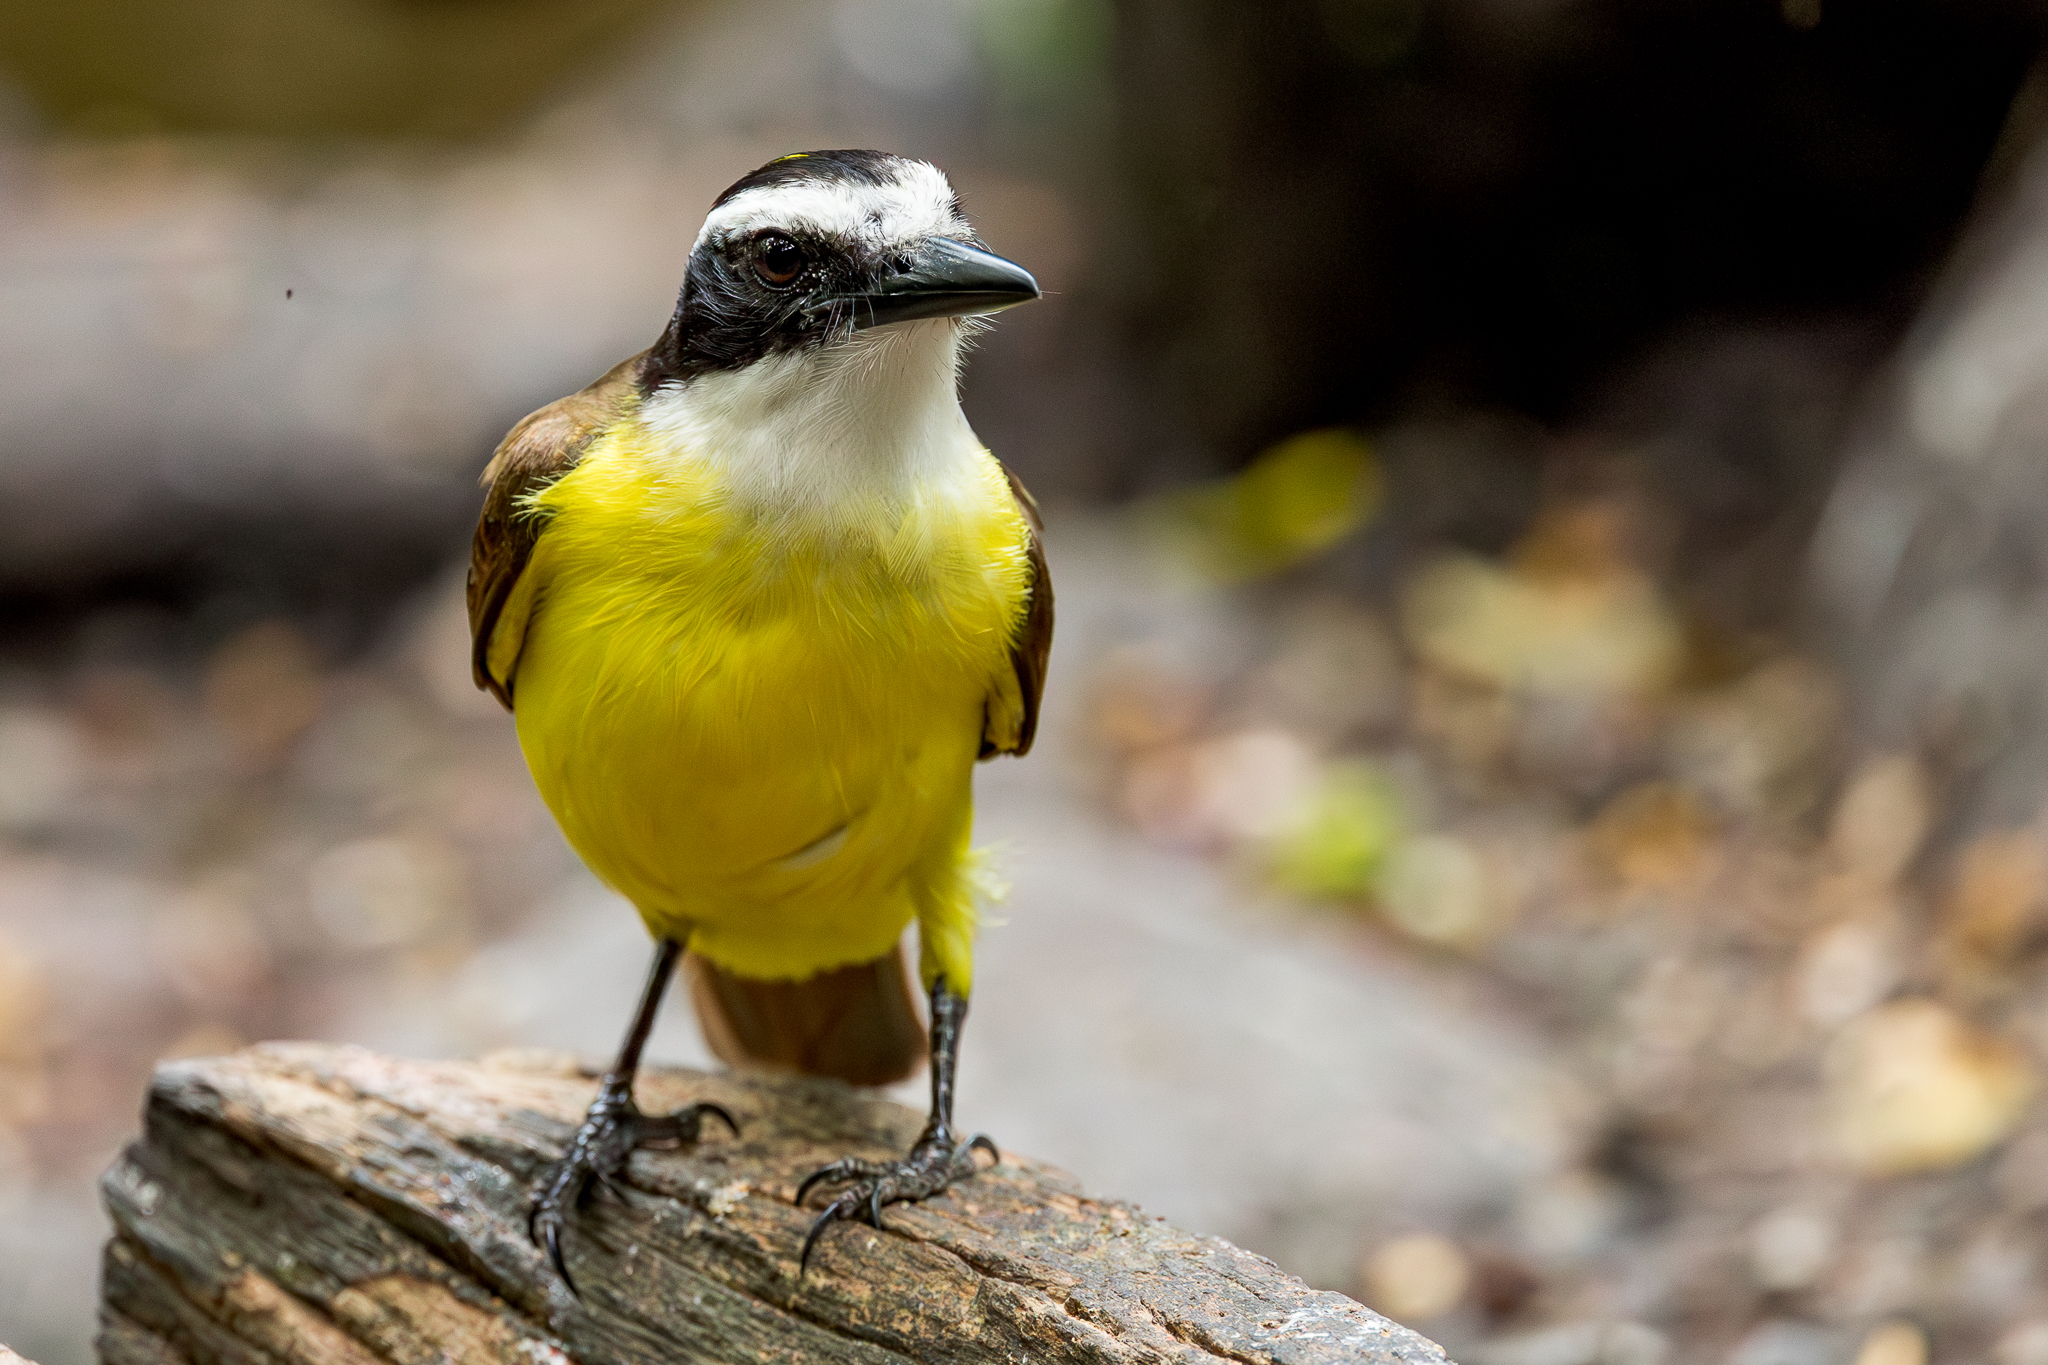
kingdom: Animalia
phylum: Chordata
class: Aves
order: Passeriformes
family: Tyrannidae
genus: Pitangus
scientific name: Pitangus sulphuratus
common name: Great kiskadee
